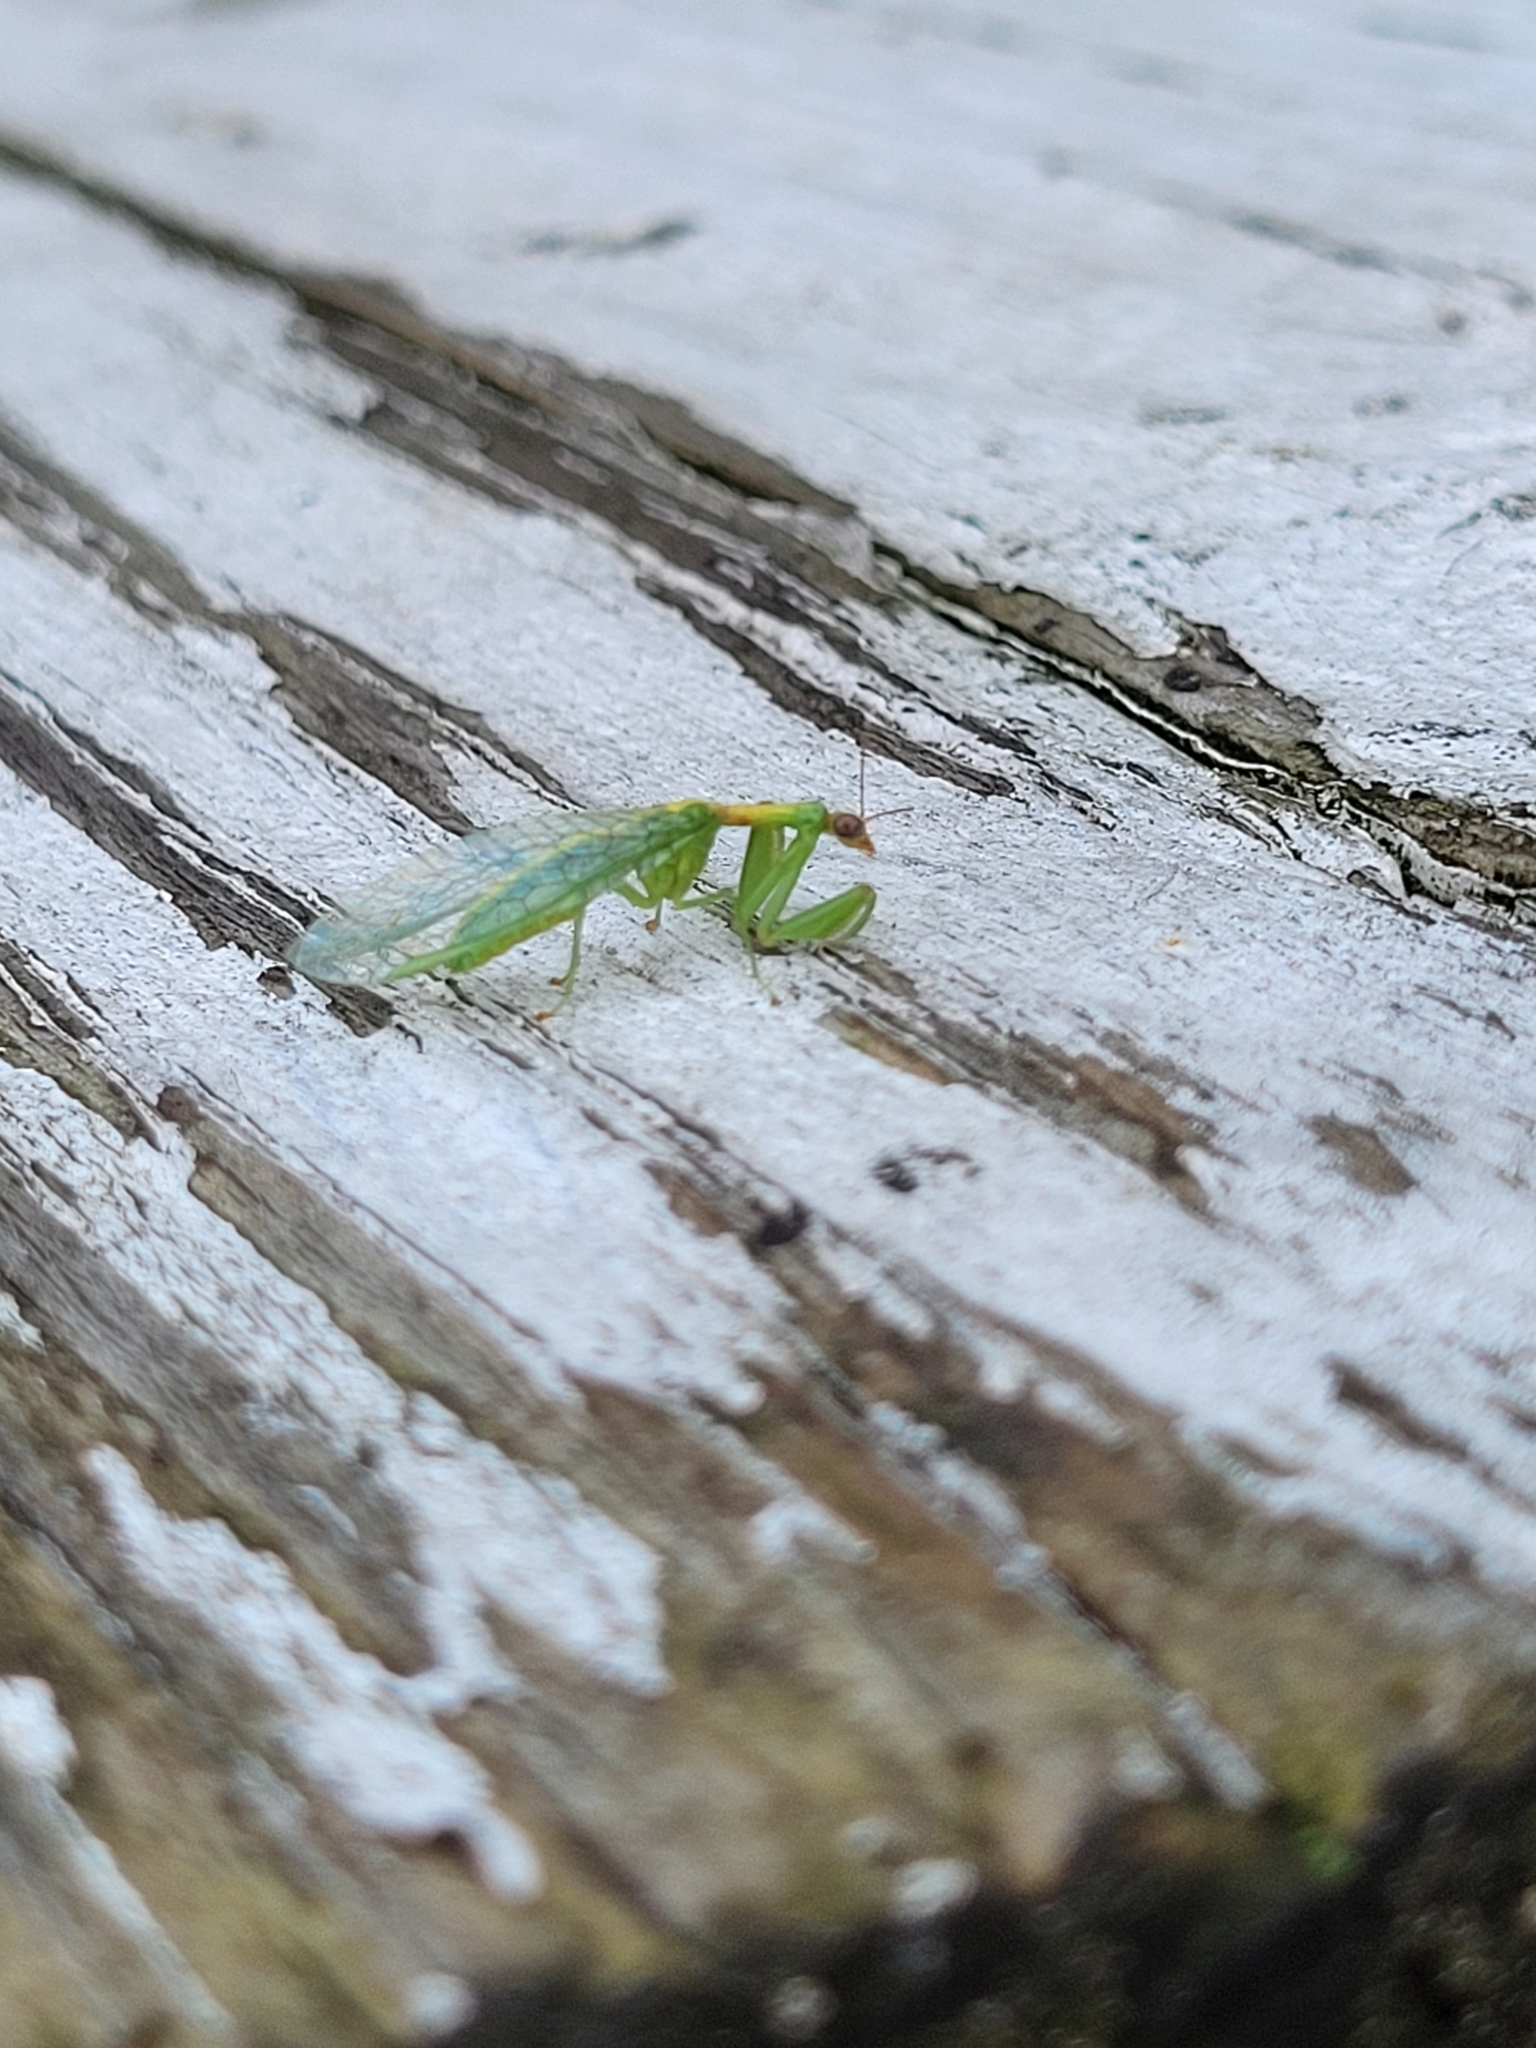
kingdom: Animalia
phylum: Arthropoda
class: Insecta
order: Neuroptera
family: Mantispidae
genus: Zeugomantispa
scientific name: Zeugomantispa minuta
